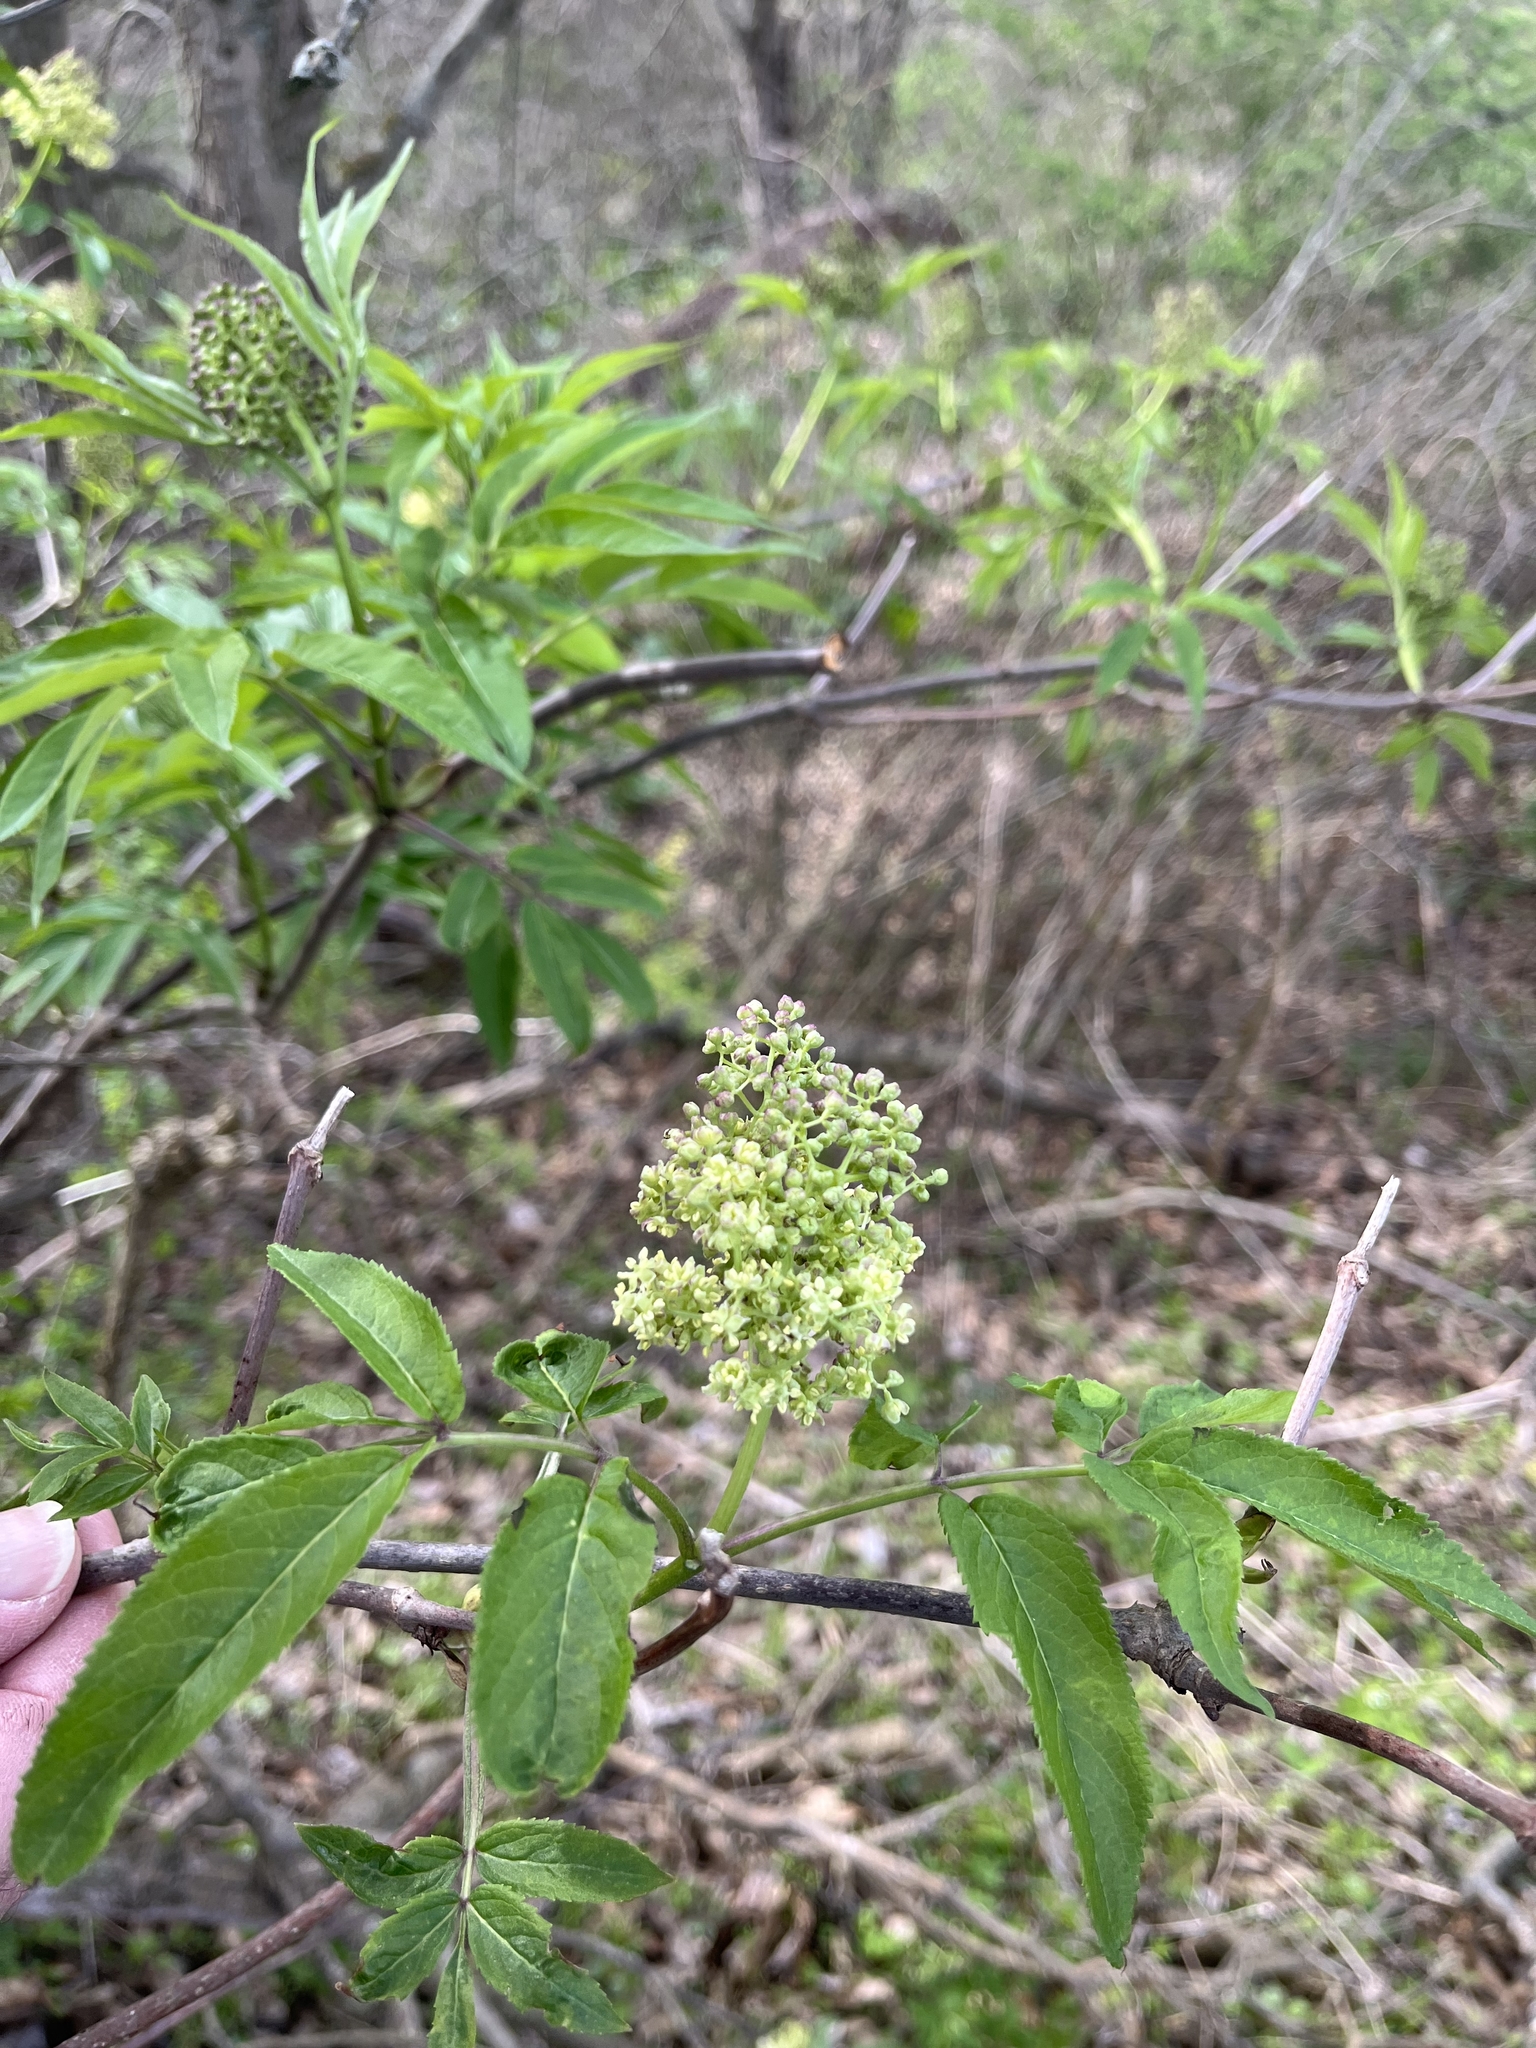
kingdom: Plantae
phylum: Tracheophyta
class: Magnoliopsida
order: Dipsacales
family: Viburnaceae
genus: Sambucus
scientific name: Sambucus racemosa
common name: Red-berried elder
